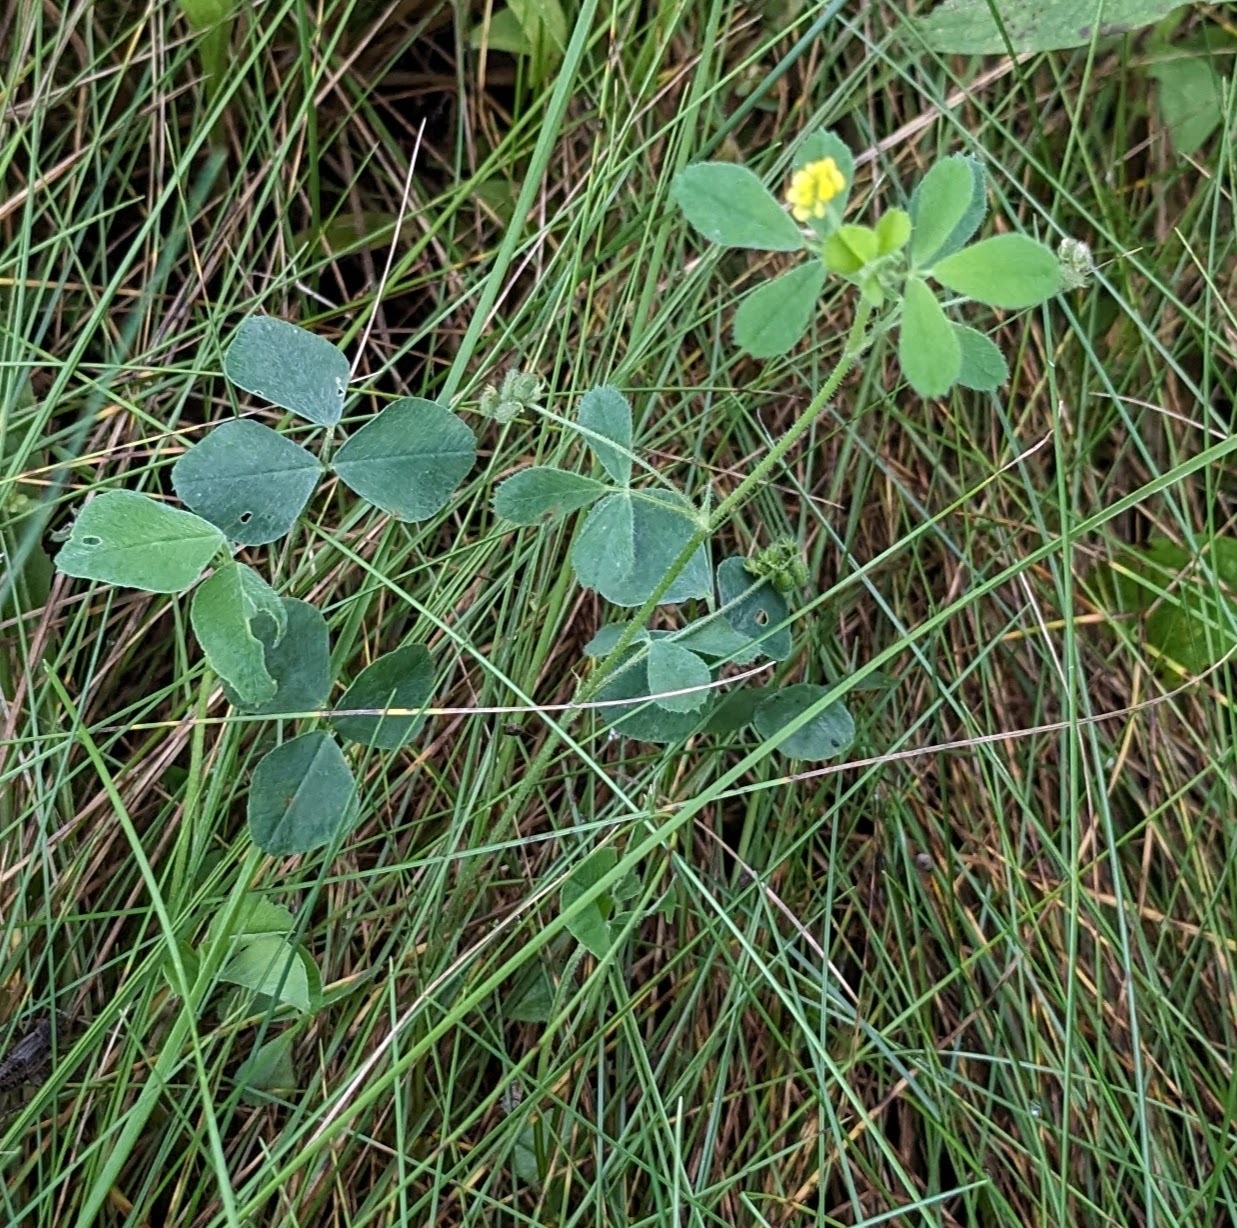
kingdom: Plantae
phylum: Tracheophyta
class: Magnoliopsida
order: Fabales
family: Fabaceae
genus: Medicago
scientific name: Medicago lupulina
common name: Black medick
